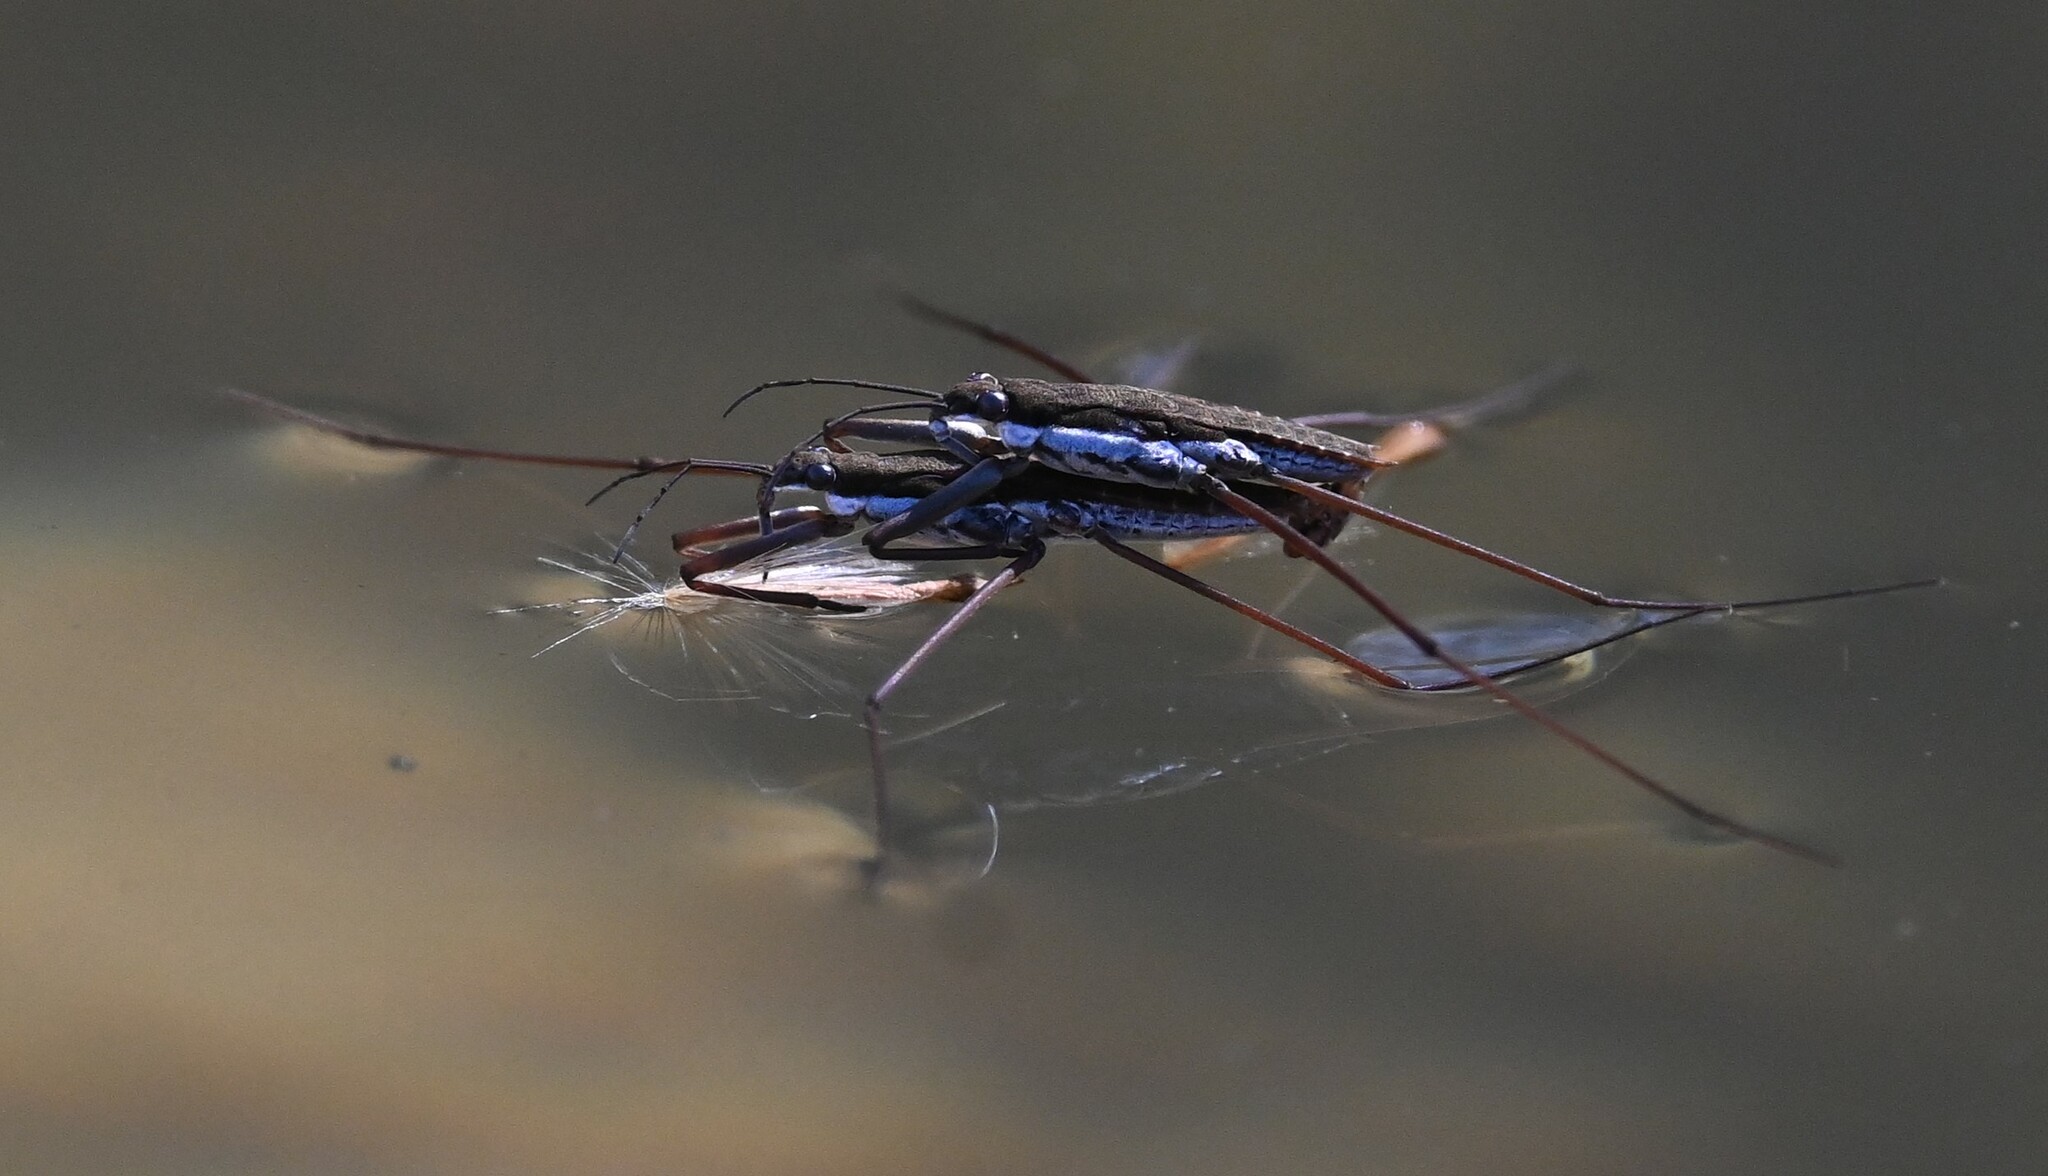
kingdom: Animalia
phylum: Arthropoda
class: Insecta
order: Hemiptera
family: Gerridae
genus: Aquarius
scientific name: Aquarius remigis
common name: Common water strider
